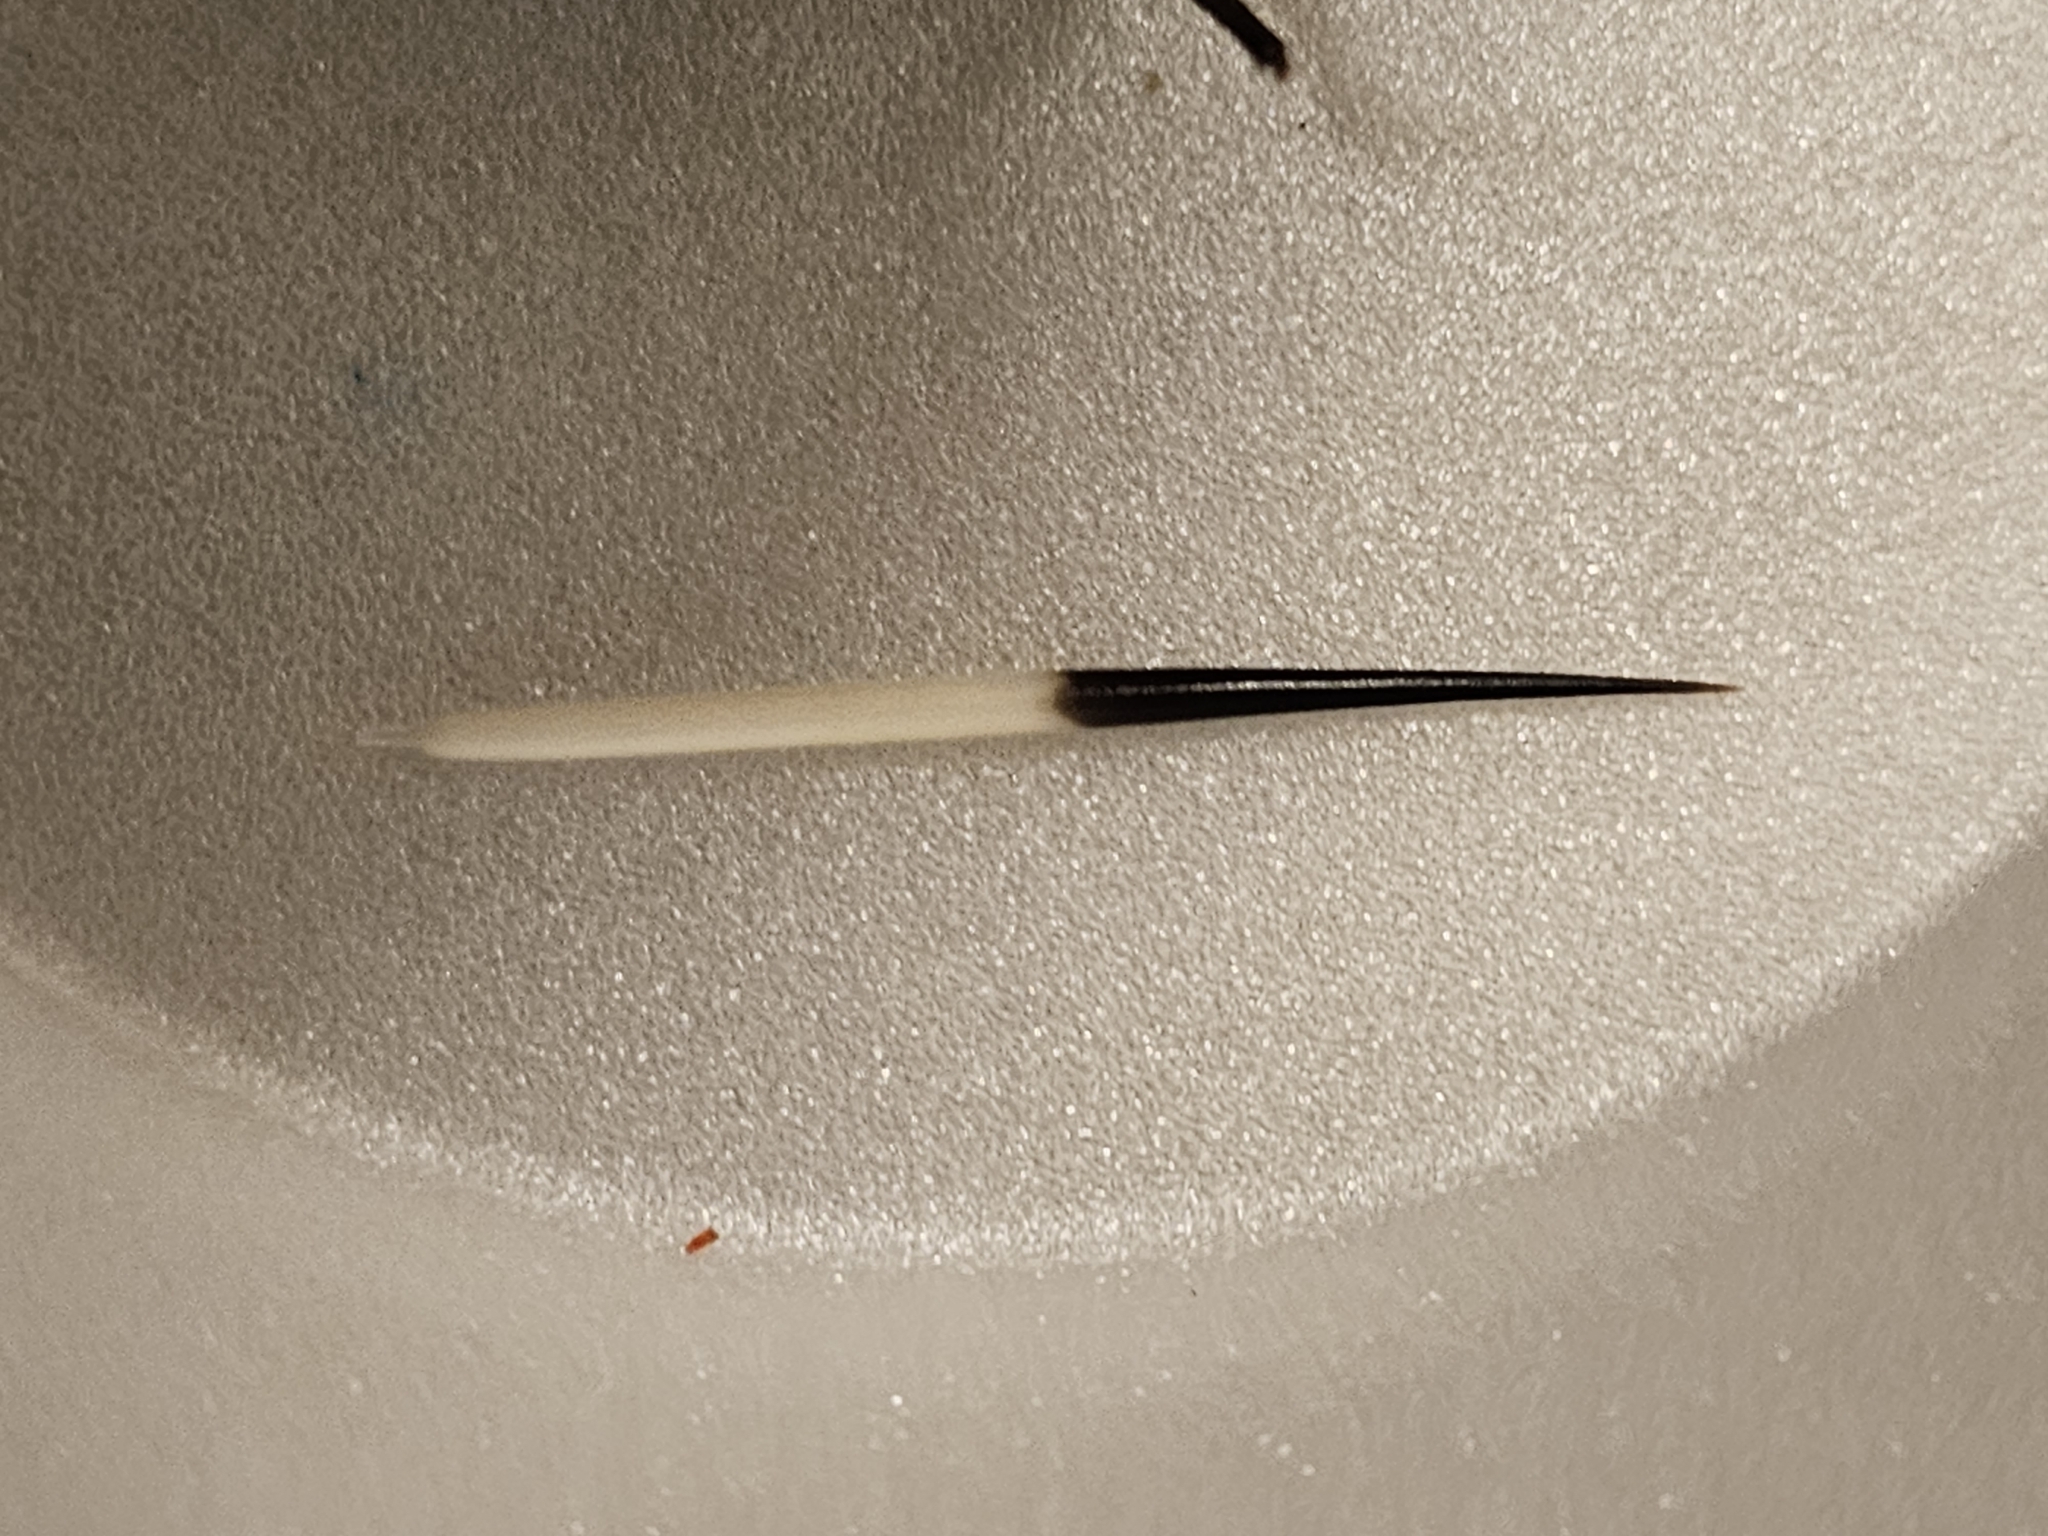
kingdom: Animalia
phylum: Chordata
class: Mammalia
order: Rodentia
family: Erethizontidae
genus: Erethizon
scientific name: Erethizon dorsatus
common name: North american porcupine
